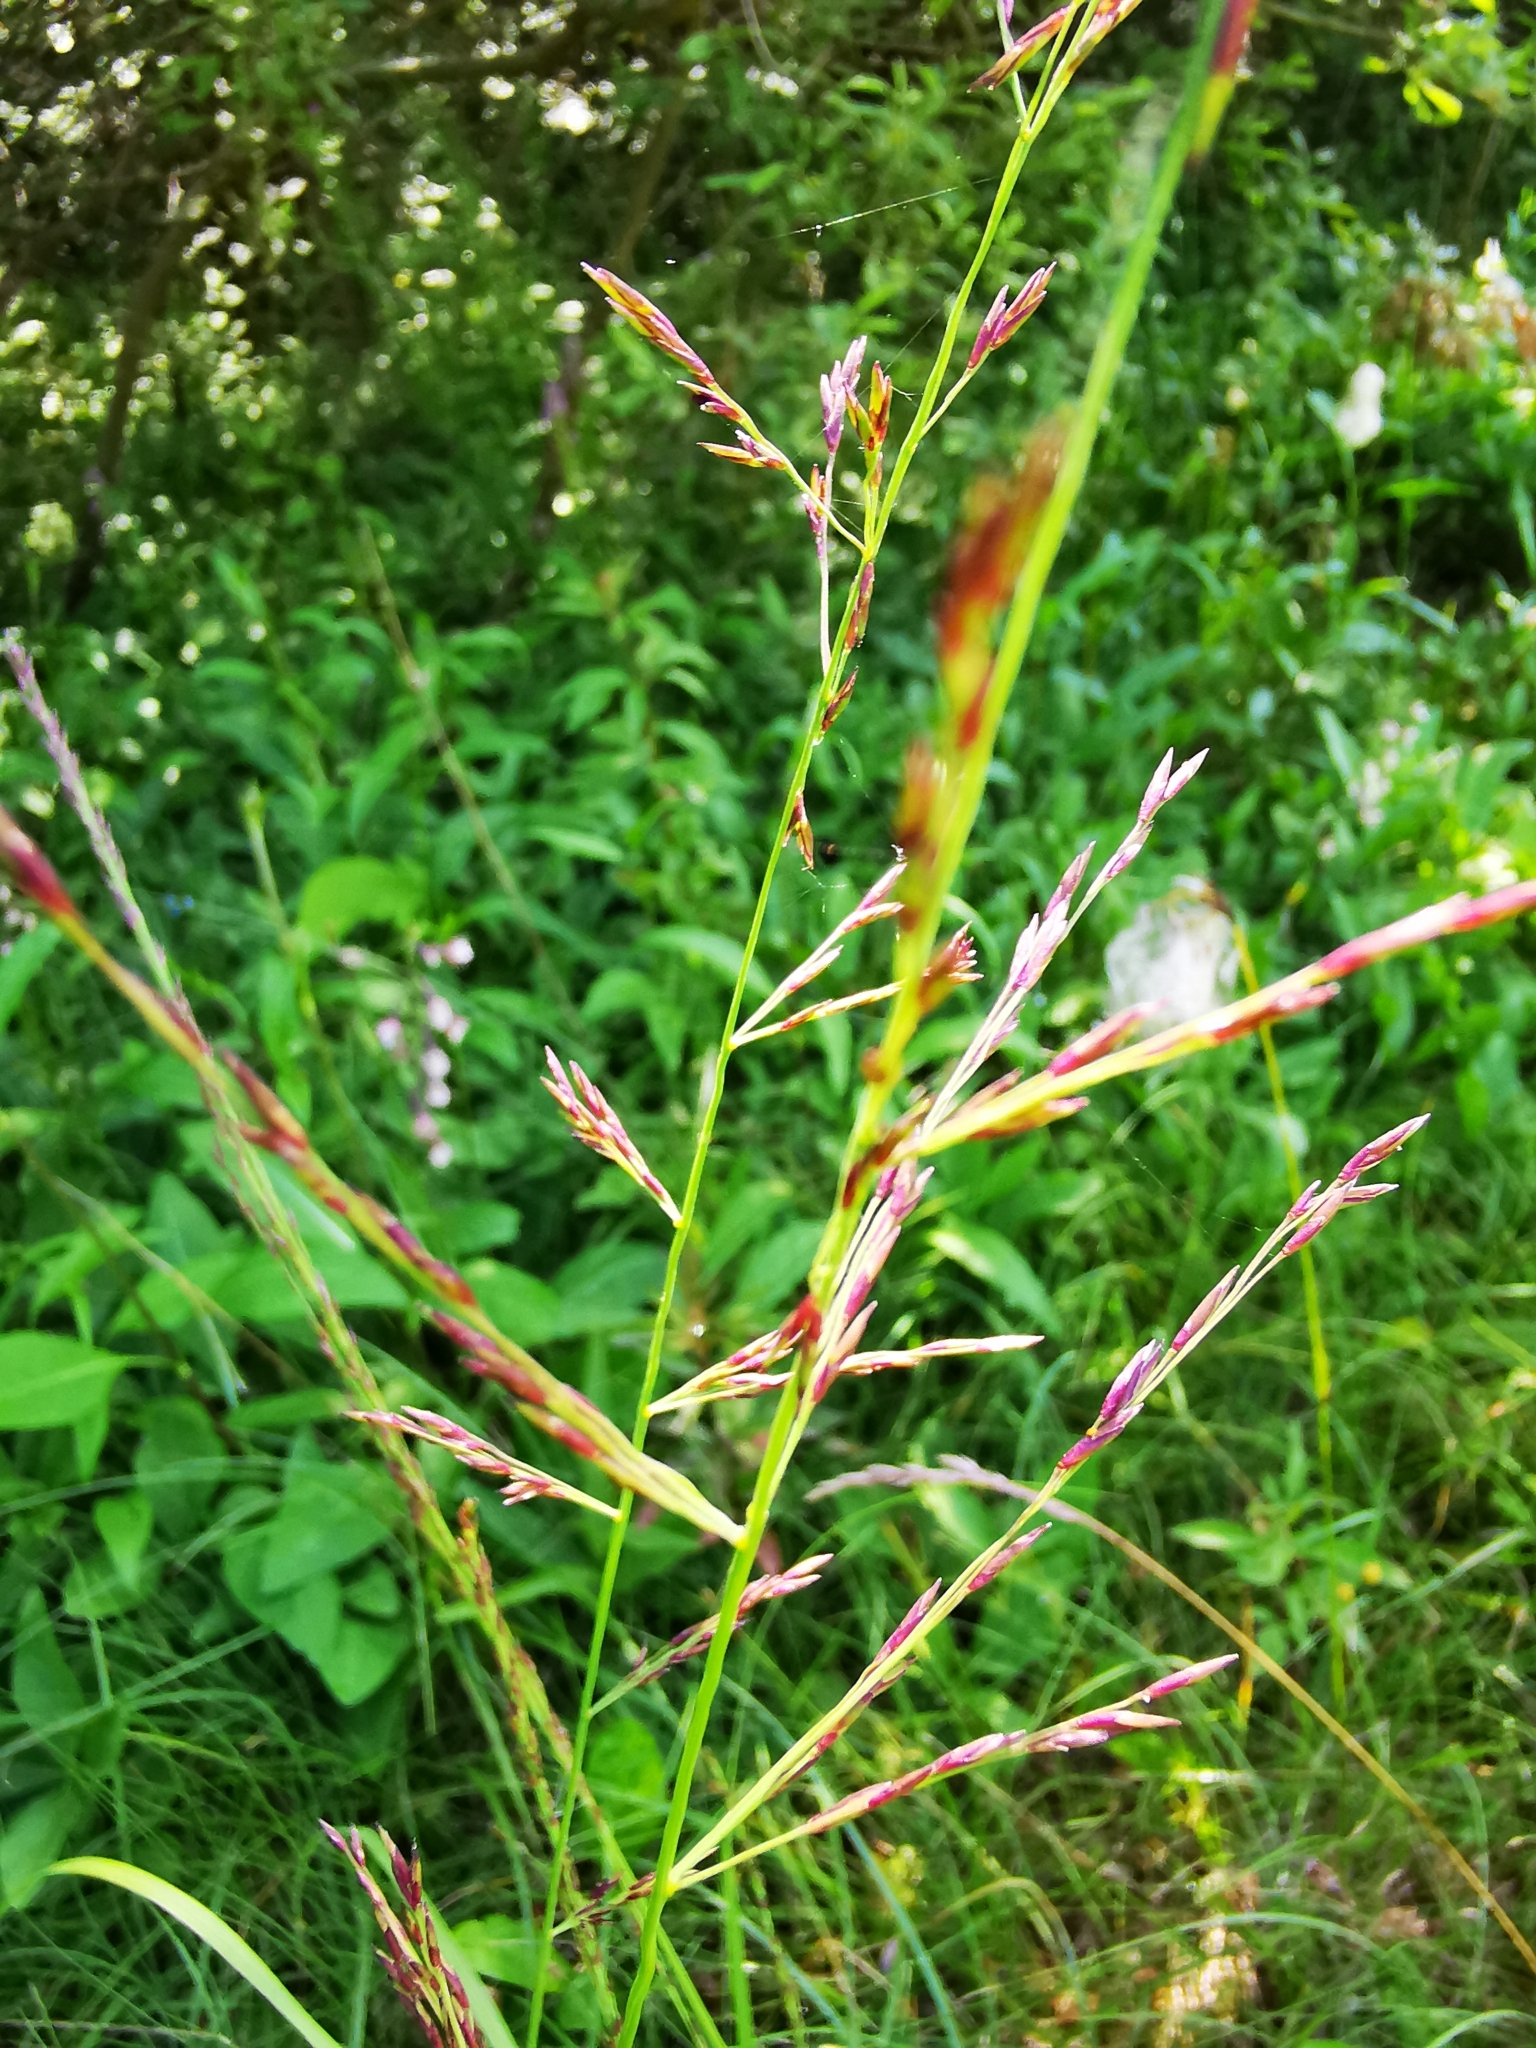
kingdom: Plantae
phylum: Tracheophyta
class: Liliopsida
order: Poales
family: Poaceae
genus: Molinia
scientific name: Molinia caerulea
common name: Purple moor-grass
